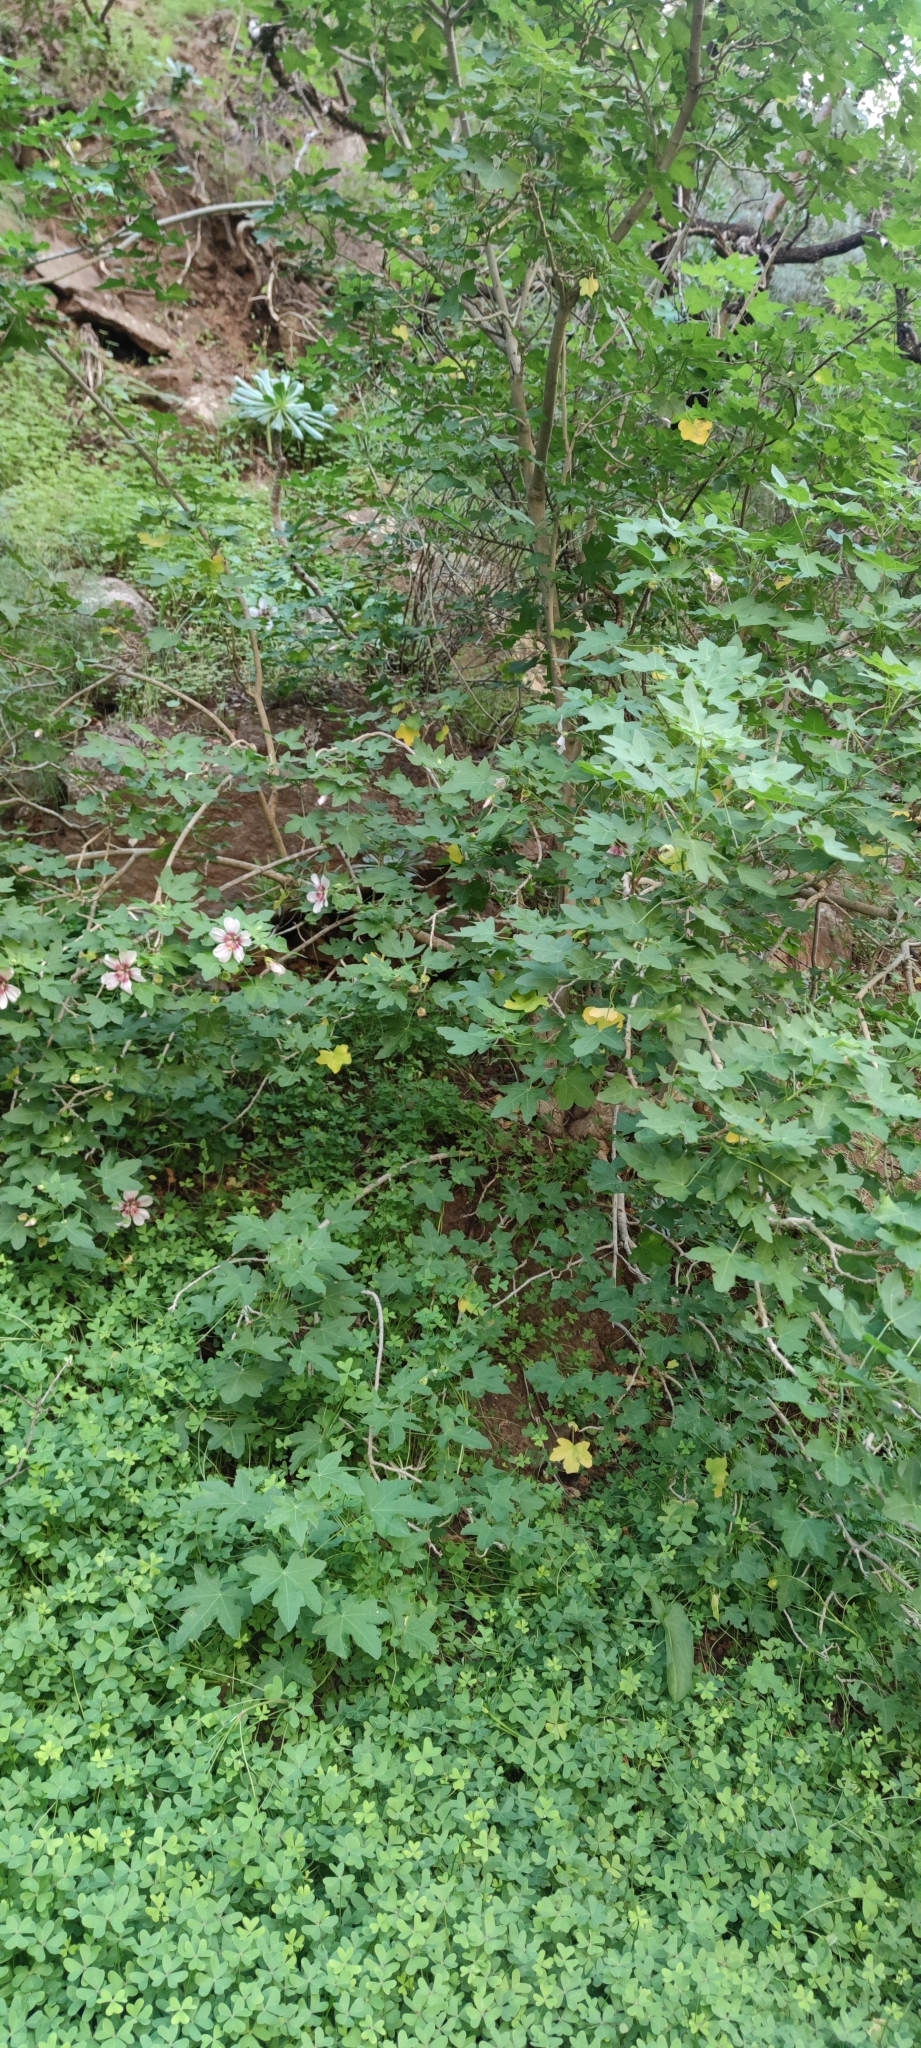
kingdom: Plantae
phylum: Tracheophyta
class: Magnoliopsida
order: Malvales
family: Malvaceae
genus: Malva
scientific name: Malva acerifolia
